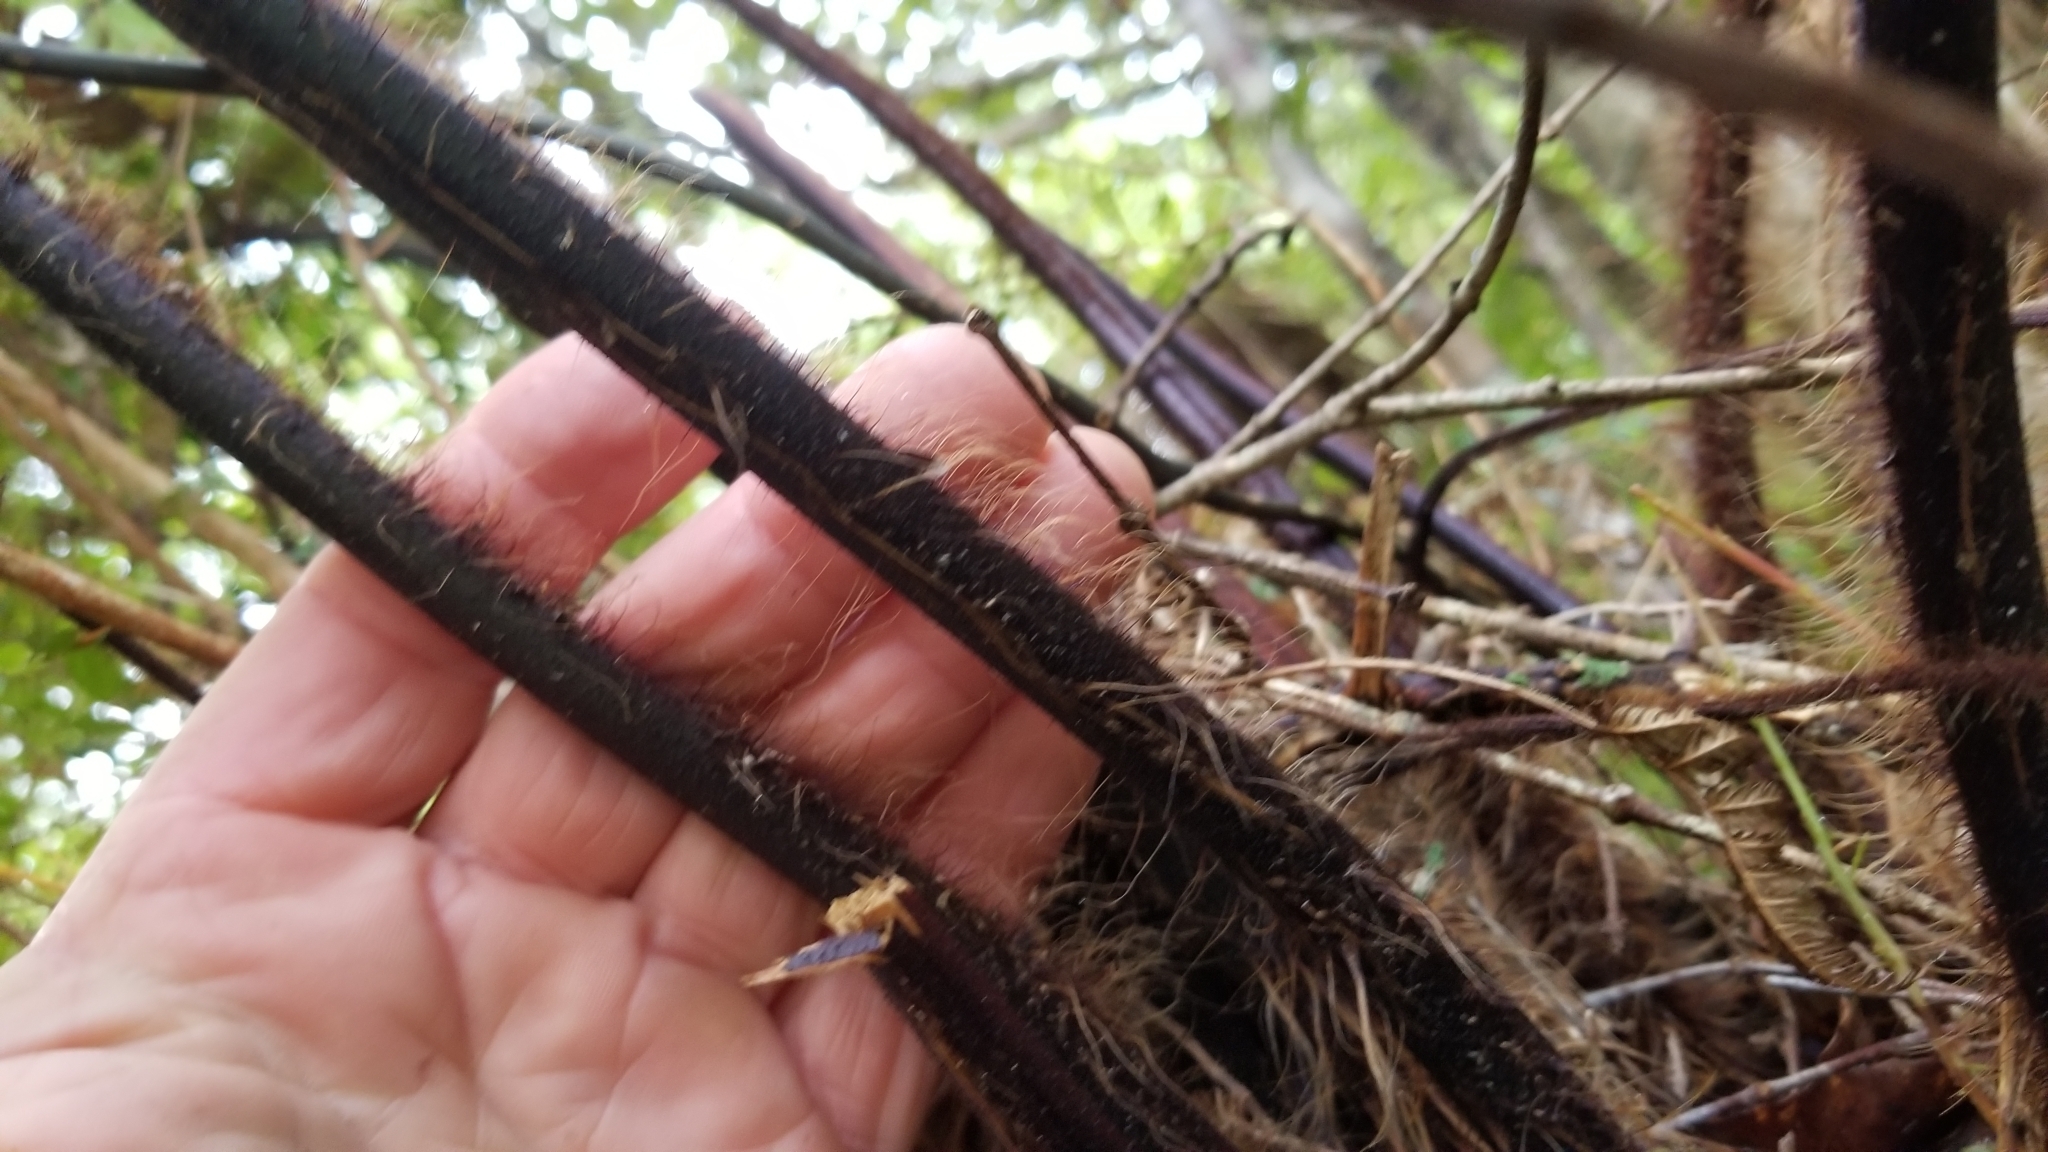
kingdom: Plantae
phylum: Tracheophyta
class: Polypodiopsida
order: Cyatheales
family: Dicksoniaceae
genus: Dicksonia
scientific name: Dicksonia squarrosa
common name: Hard treefern
